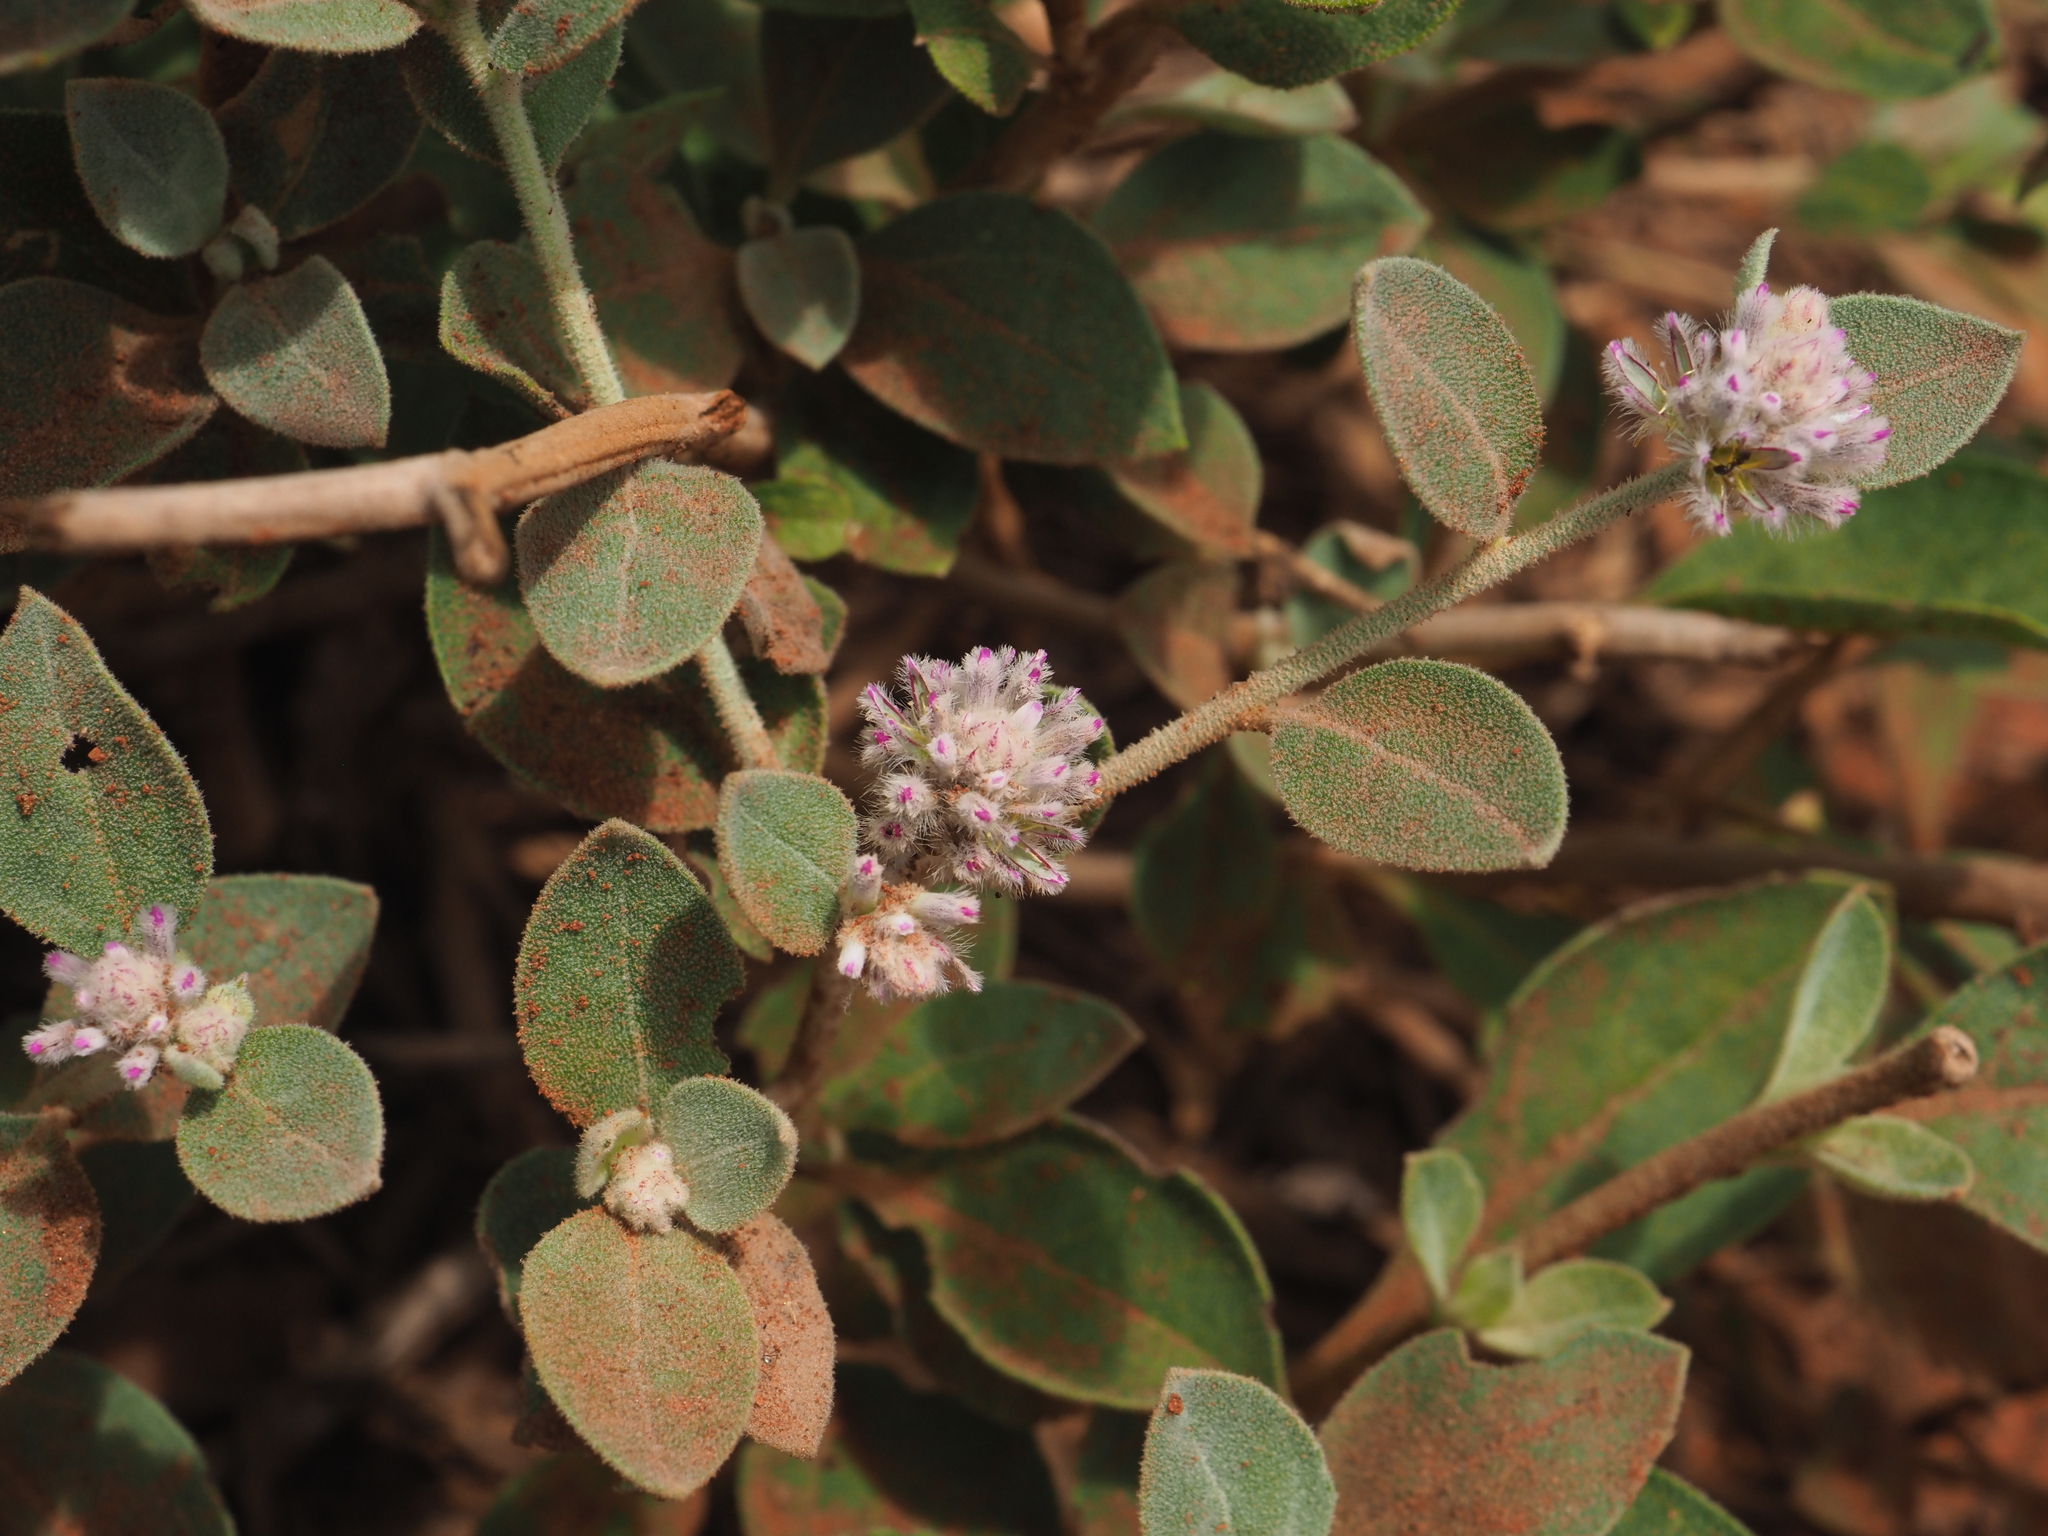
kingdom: Plantae
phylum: Tracheophyta
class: Magnoliopsida
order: Caryophyllales
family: Amaranthaceae
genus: Ptilotus
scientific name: Ptilotus obovatus
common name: Cottonbush
